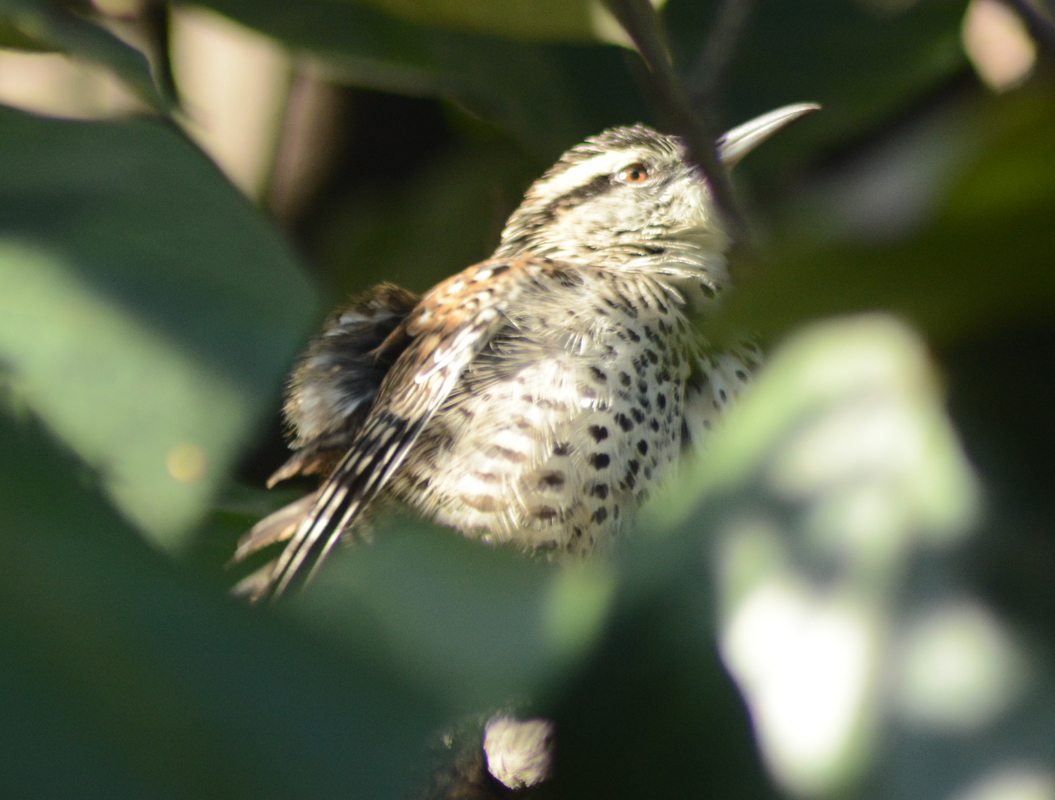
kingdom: Animalia
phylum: Chordata
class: Aves
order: Passeriformes
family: Troglodytidae
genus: Campylorhynchus
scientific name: Campylorhynchus jocosus
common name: Boucard's wren
